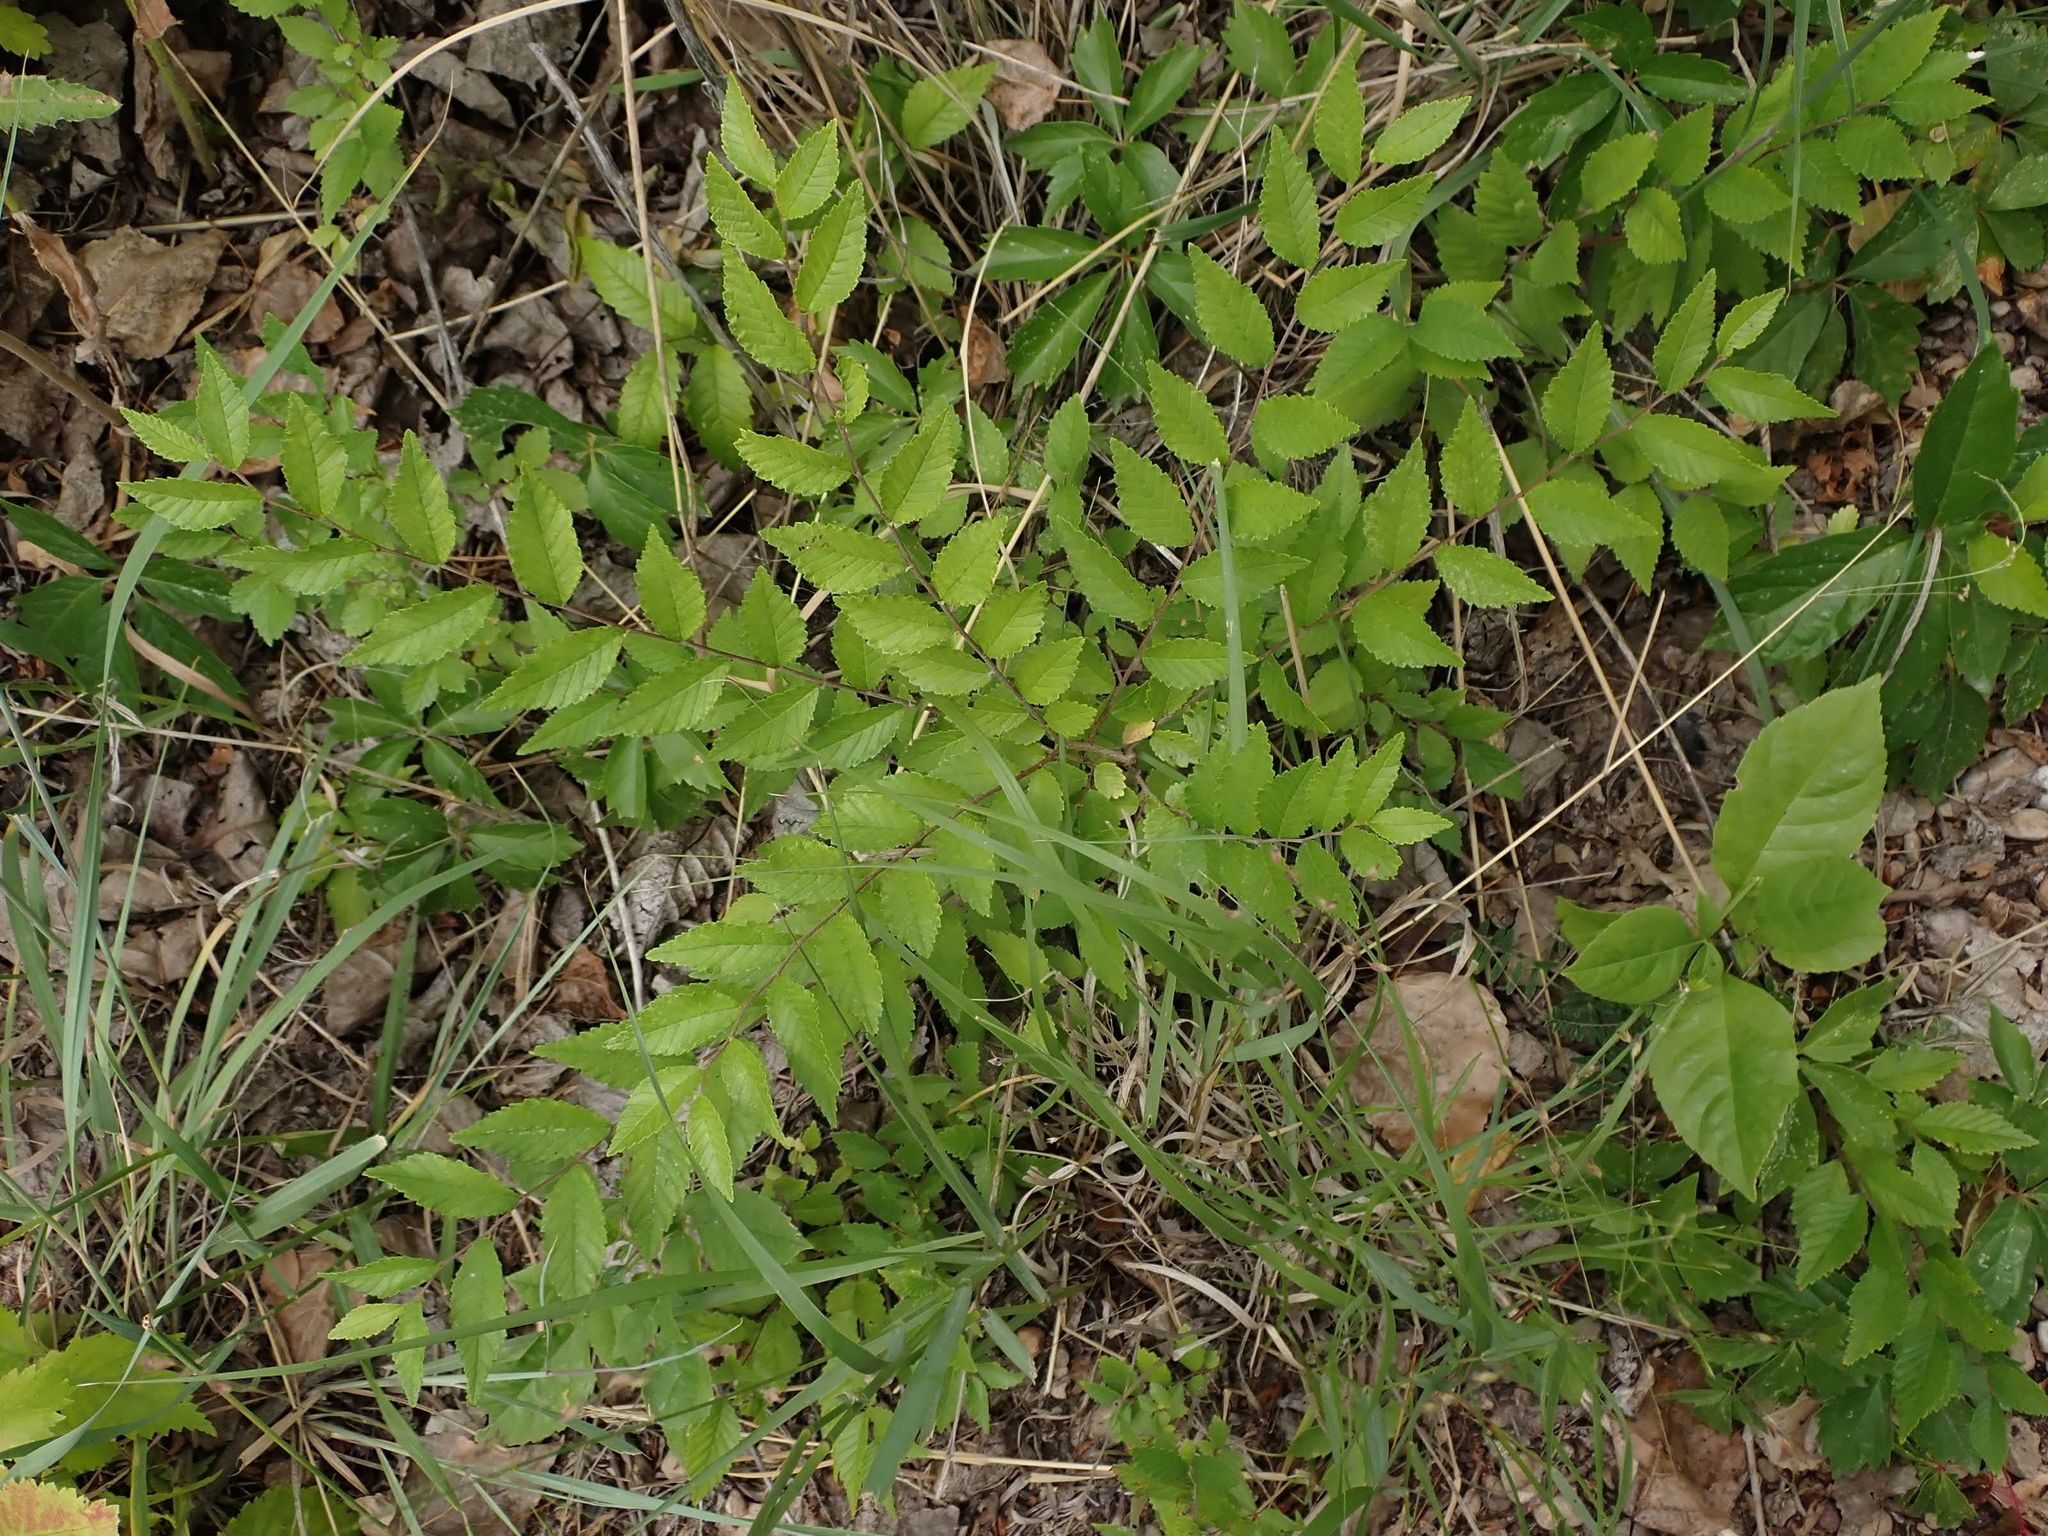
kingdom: Plantae
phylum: Tracheophyta
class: Magnoliopsida
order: Rosales
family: Ulmaceae
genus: Ulmus
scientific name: Ulmus pumila
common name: Siberian elm
